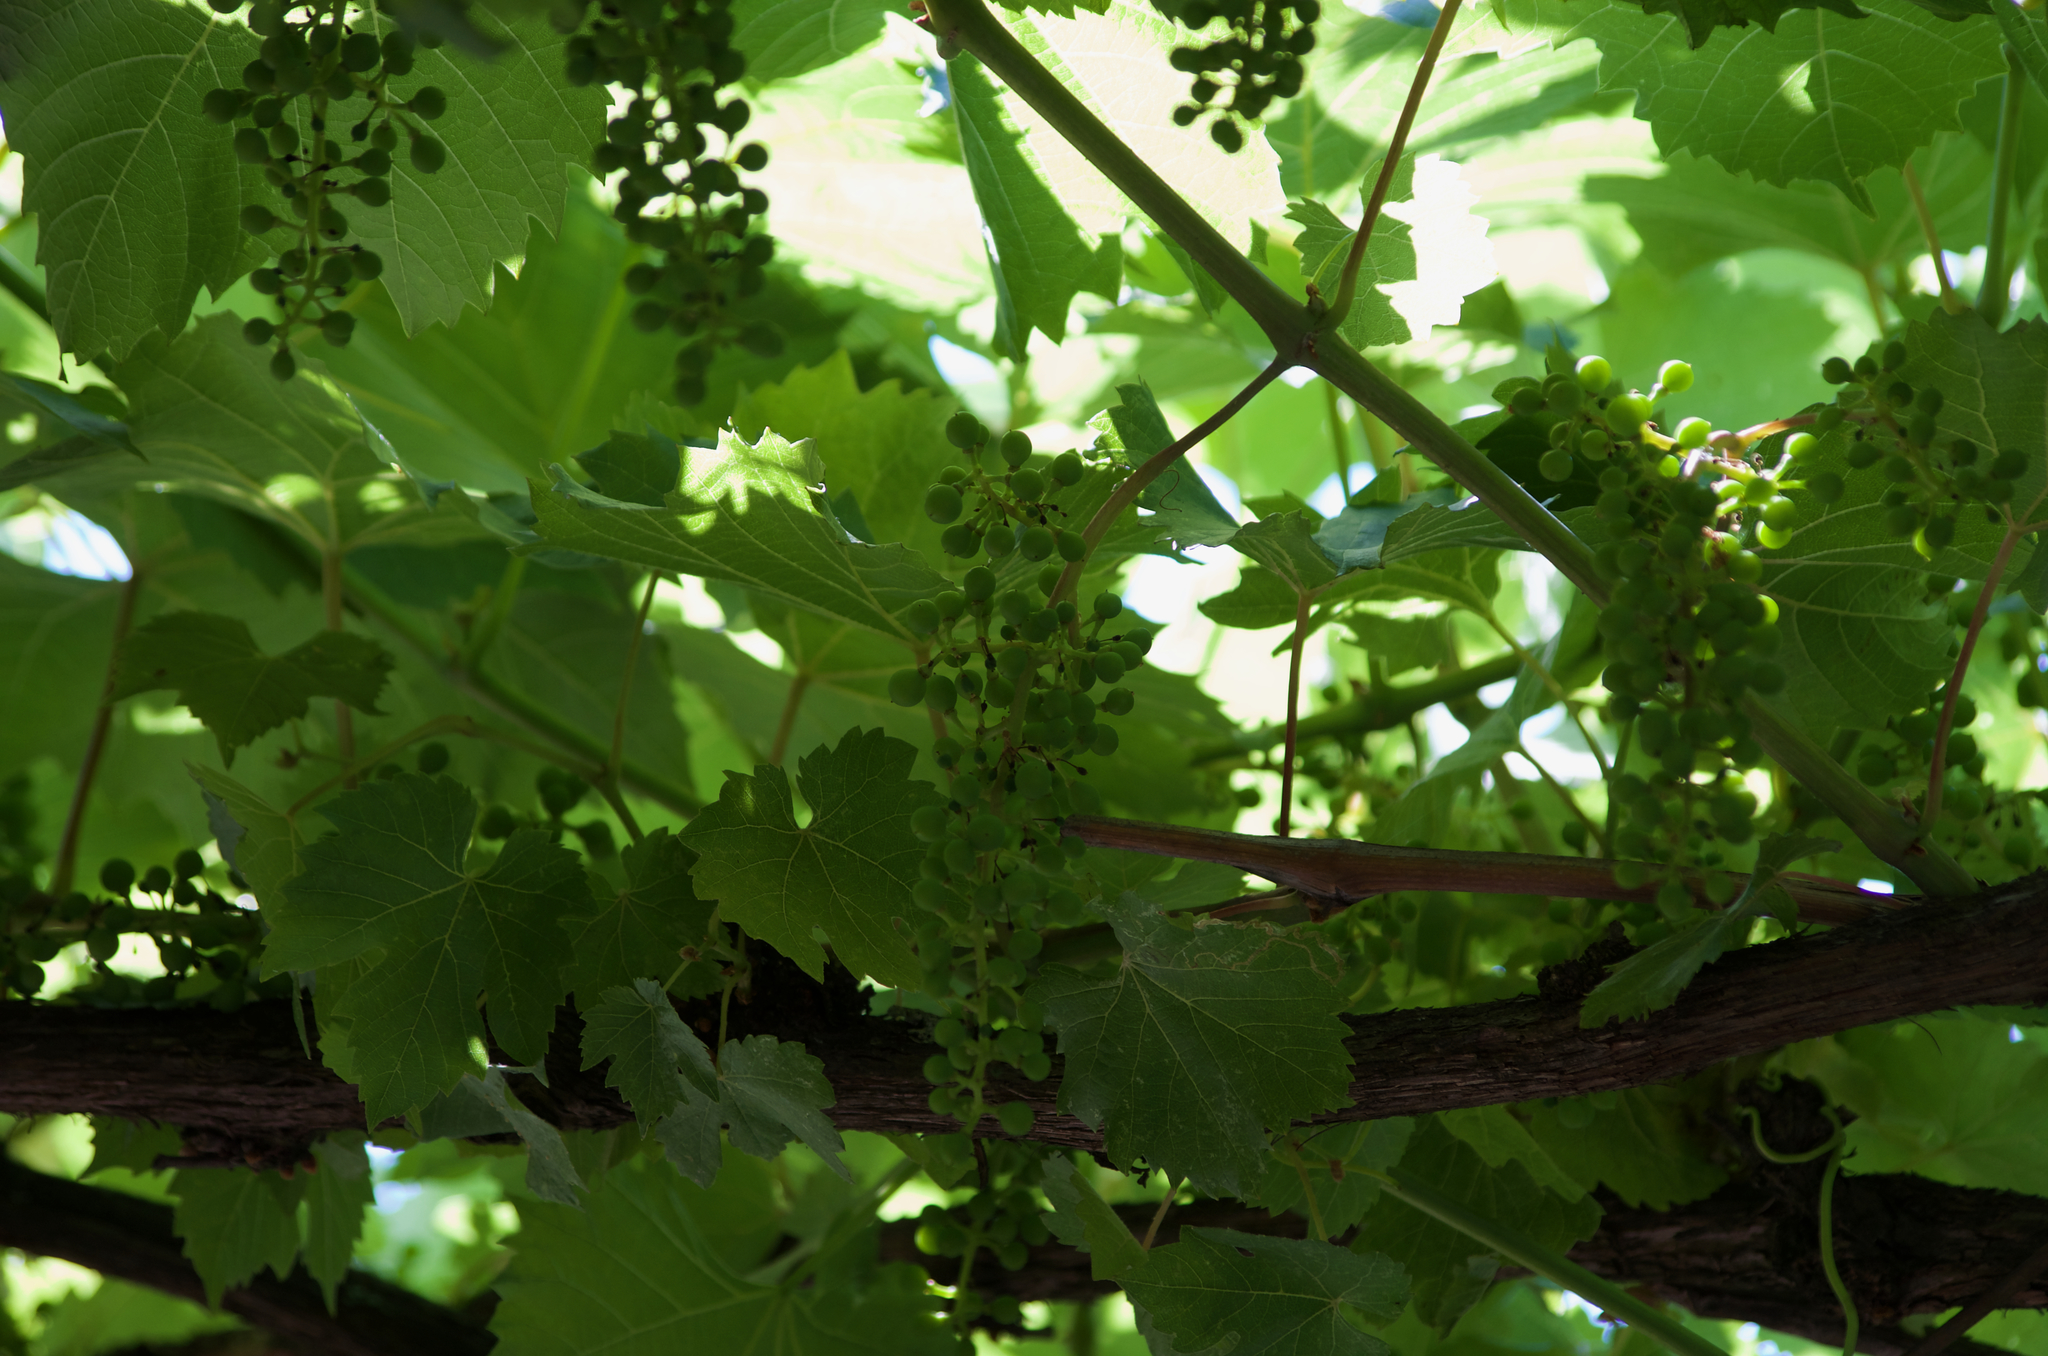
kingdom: Plantae
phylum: Tracheophyta
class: Magnoliopsida
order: Vitales
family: Vitaceae
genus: Vitis
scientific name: Vitis vinifera
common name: Grape-vine
